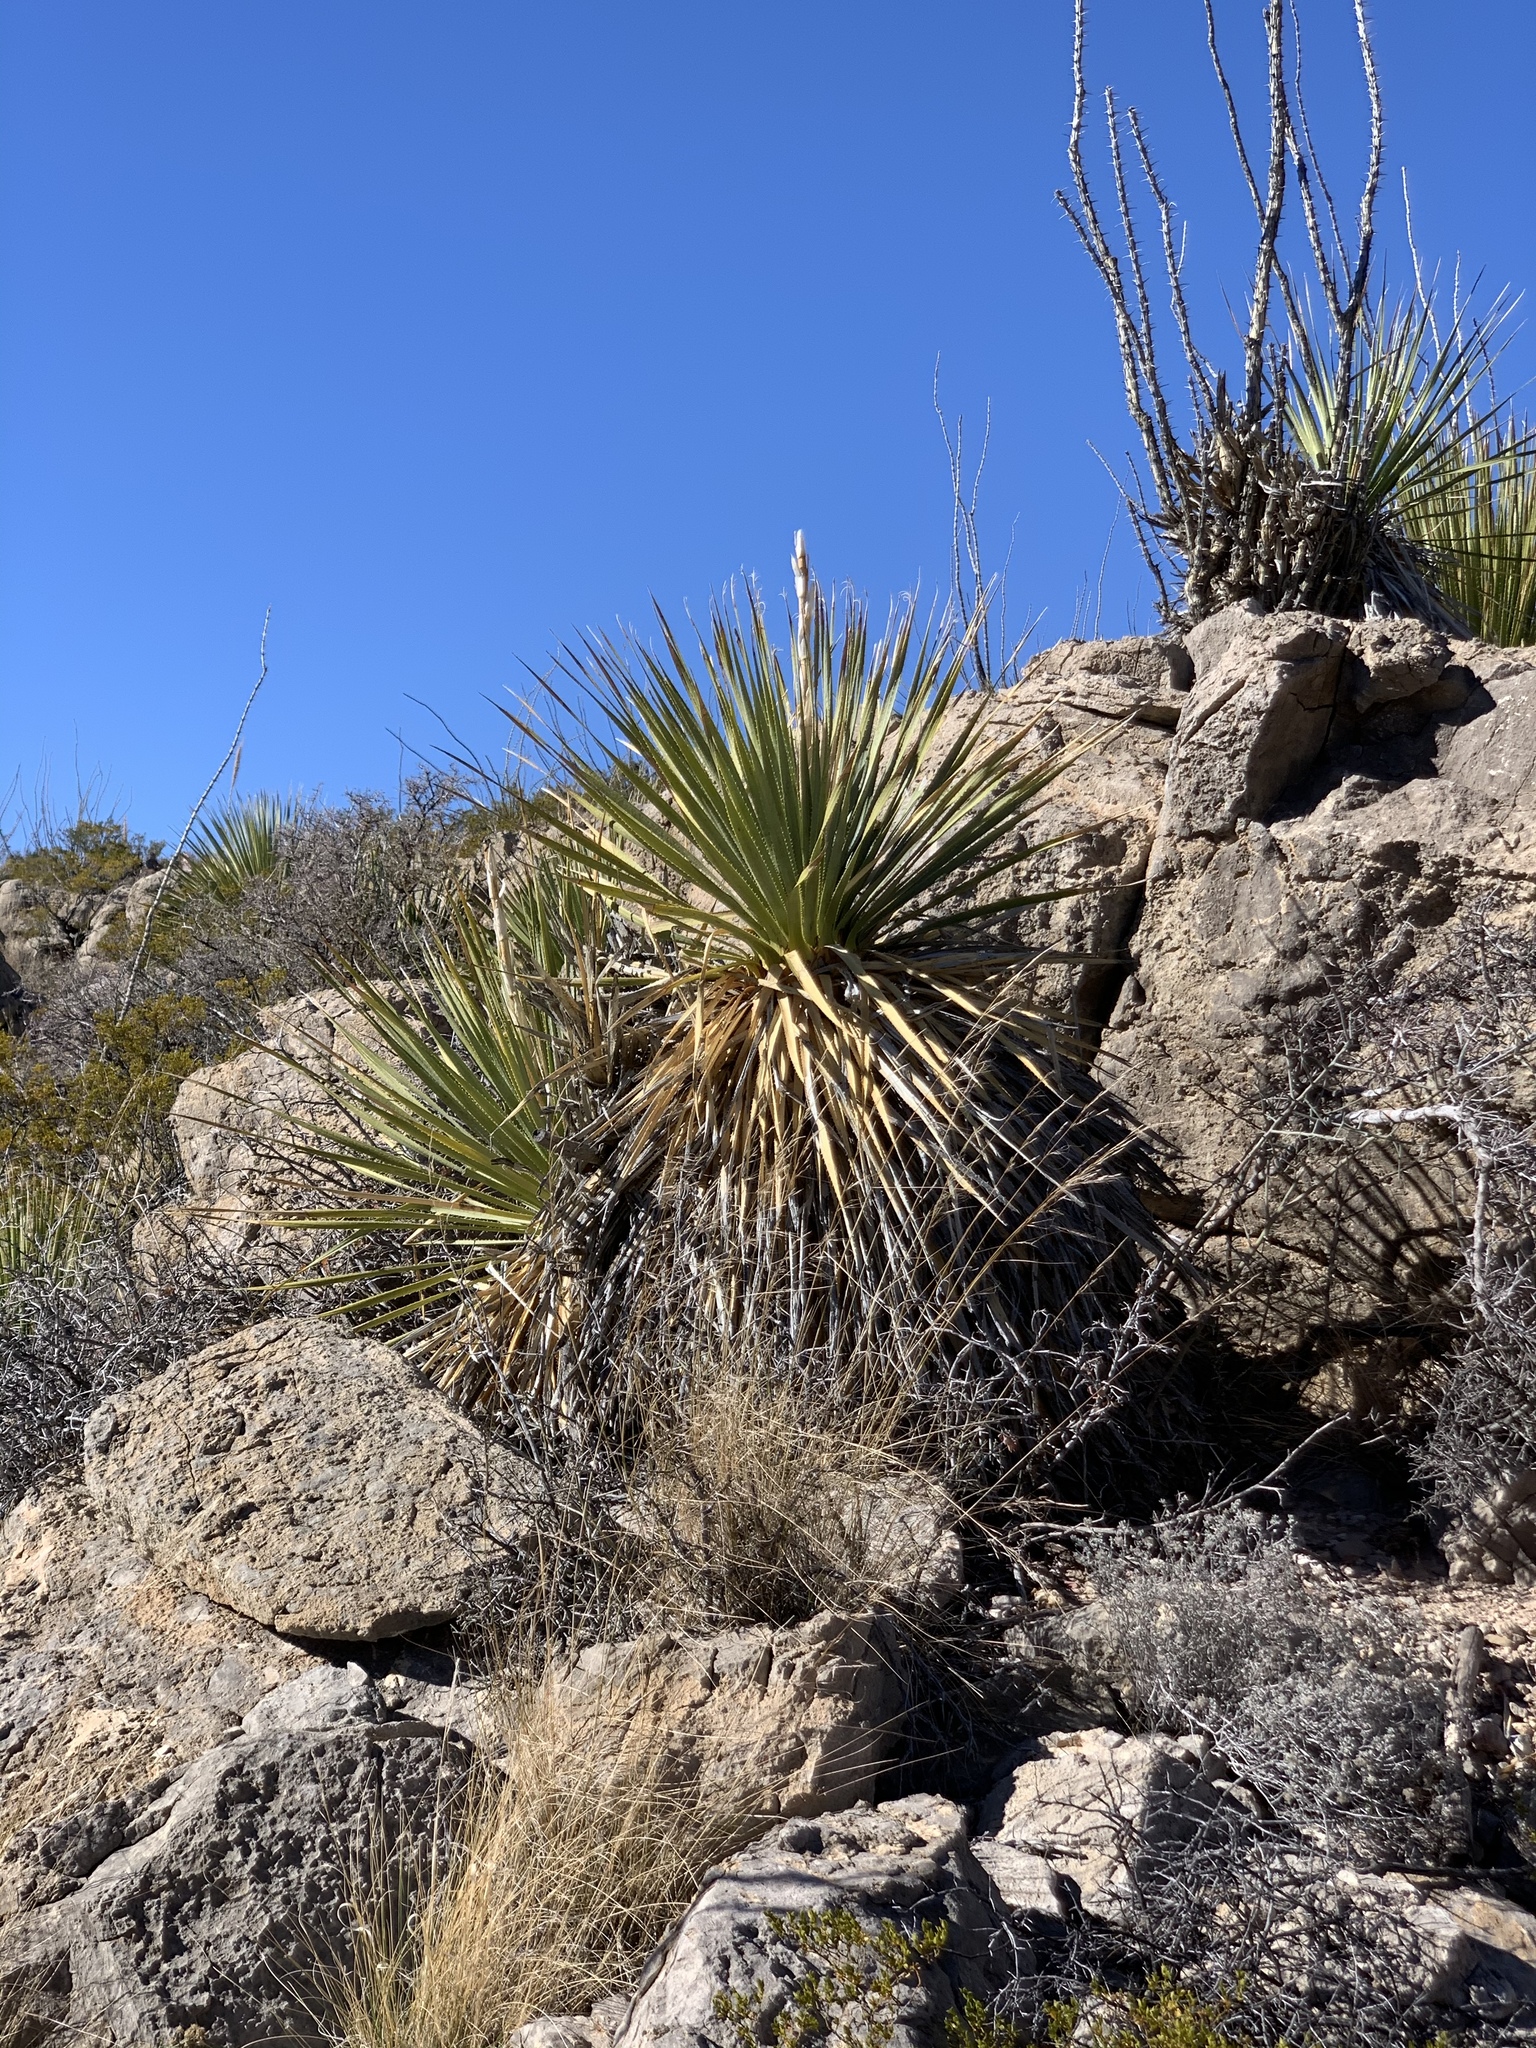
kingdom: Plantae
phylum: Tracheophyta
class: Liliopsida
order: Asparagales
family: Asparagaceae
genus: Dasylirion
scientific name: Dasylirion wheeleri
